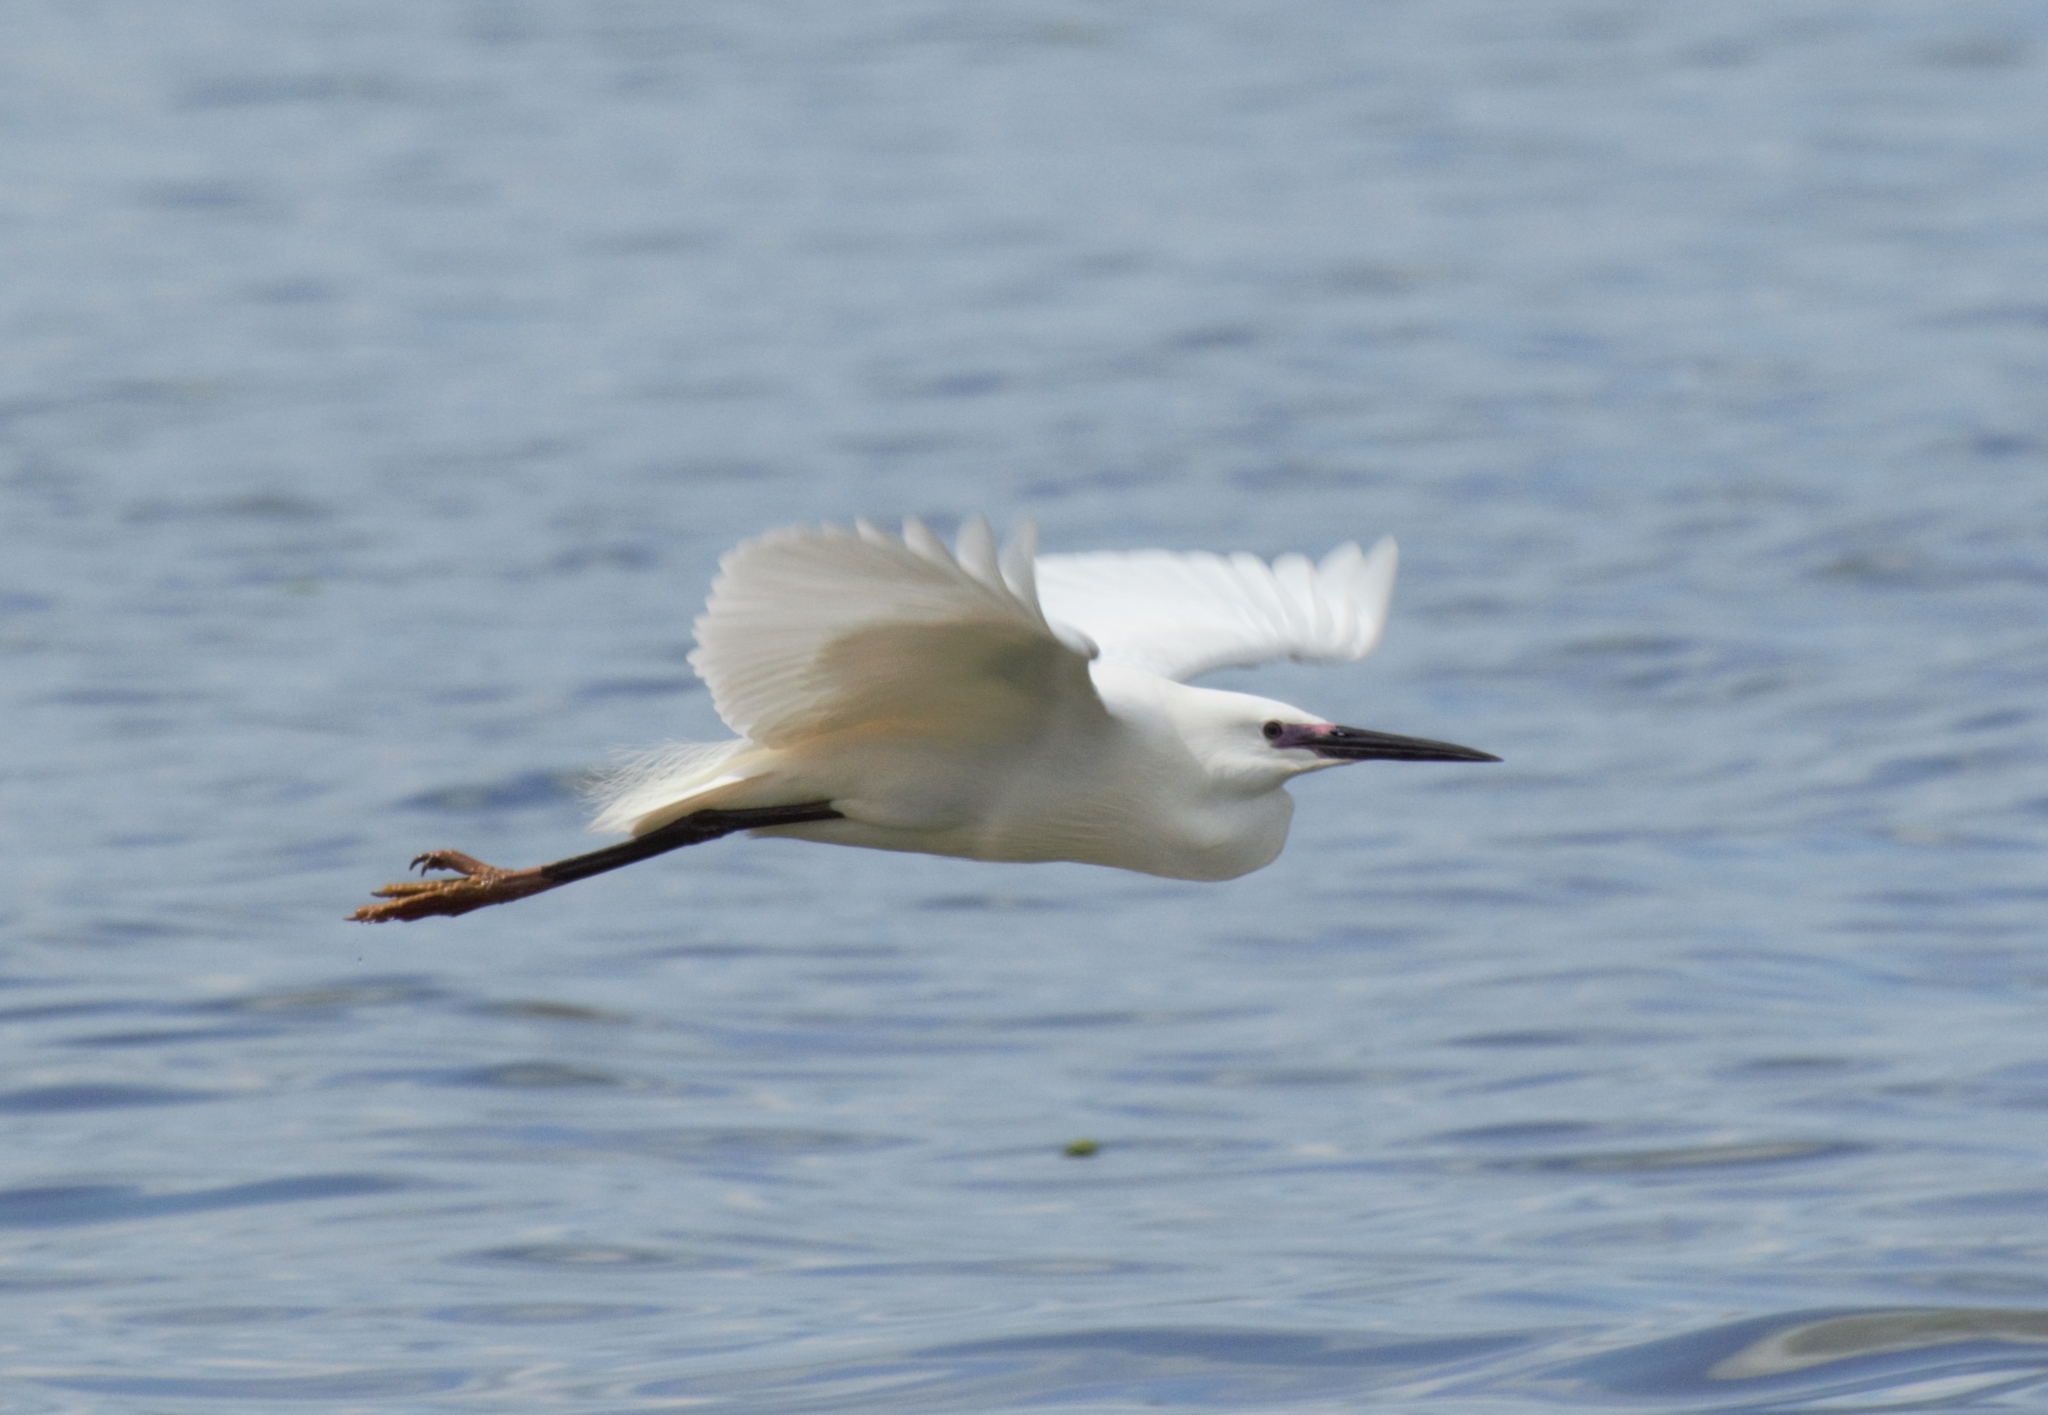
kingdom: Animalia
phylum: Chordata
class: Aves
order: Pelecaniformes
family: Ardeidae
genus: Egretta
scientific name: Egretta garzetta
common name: Little egret
